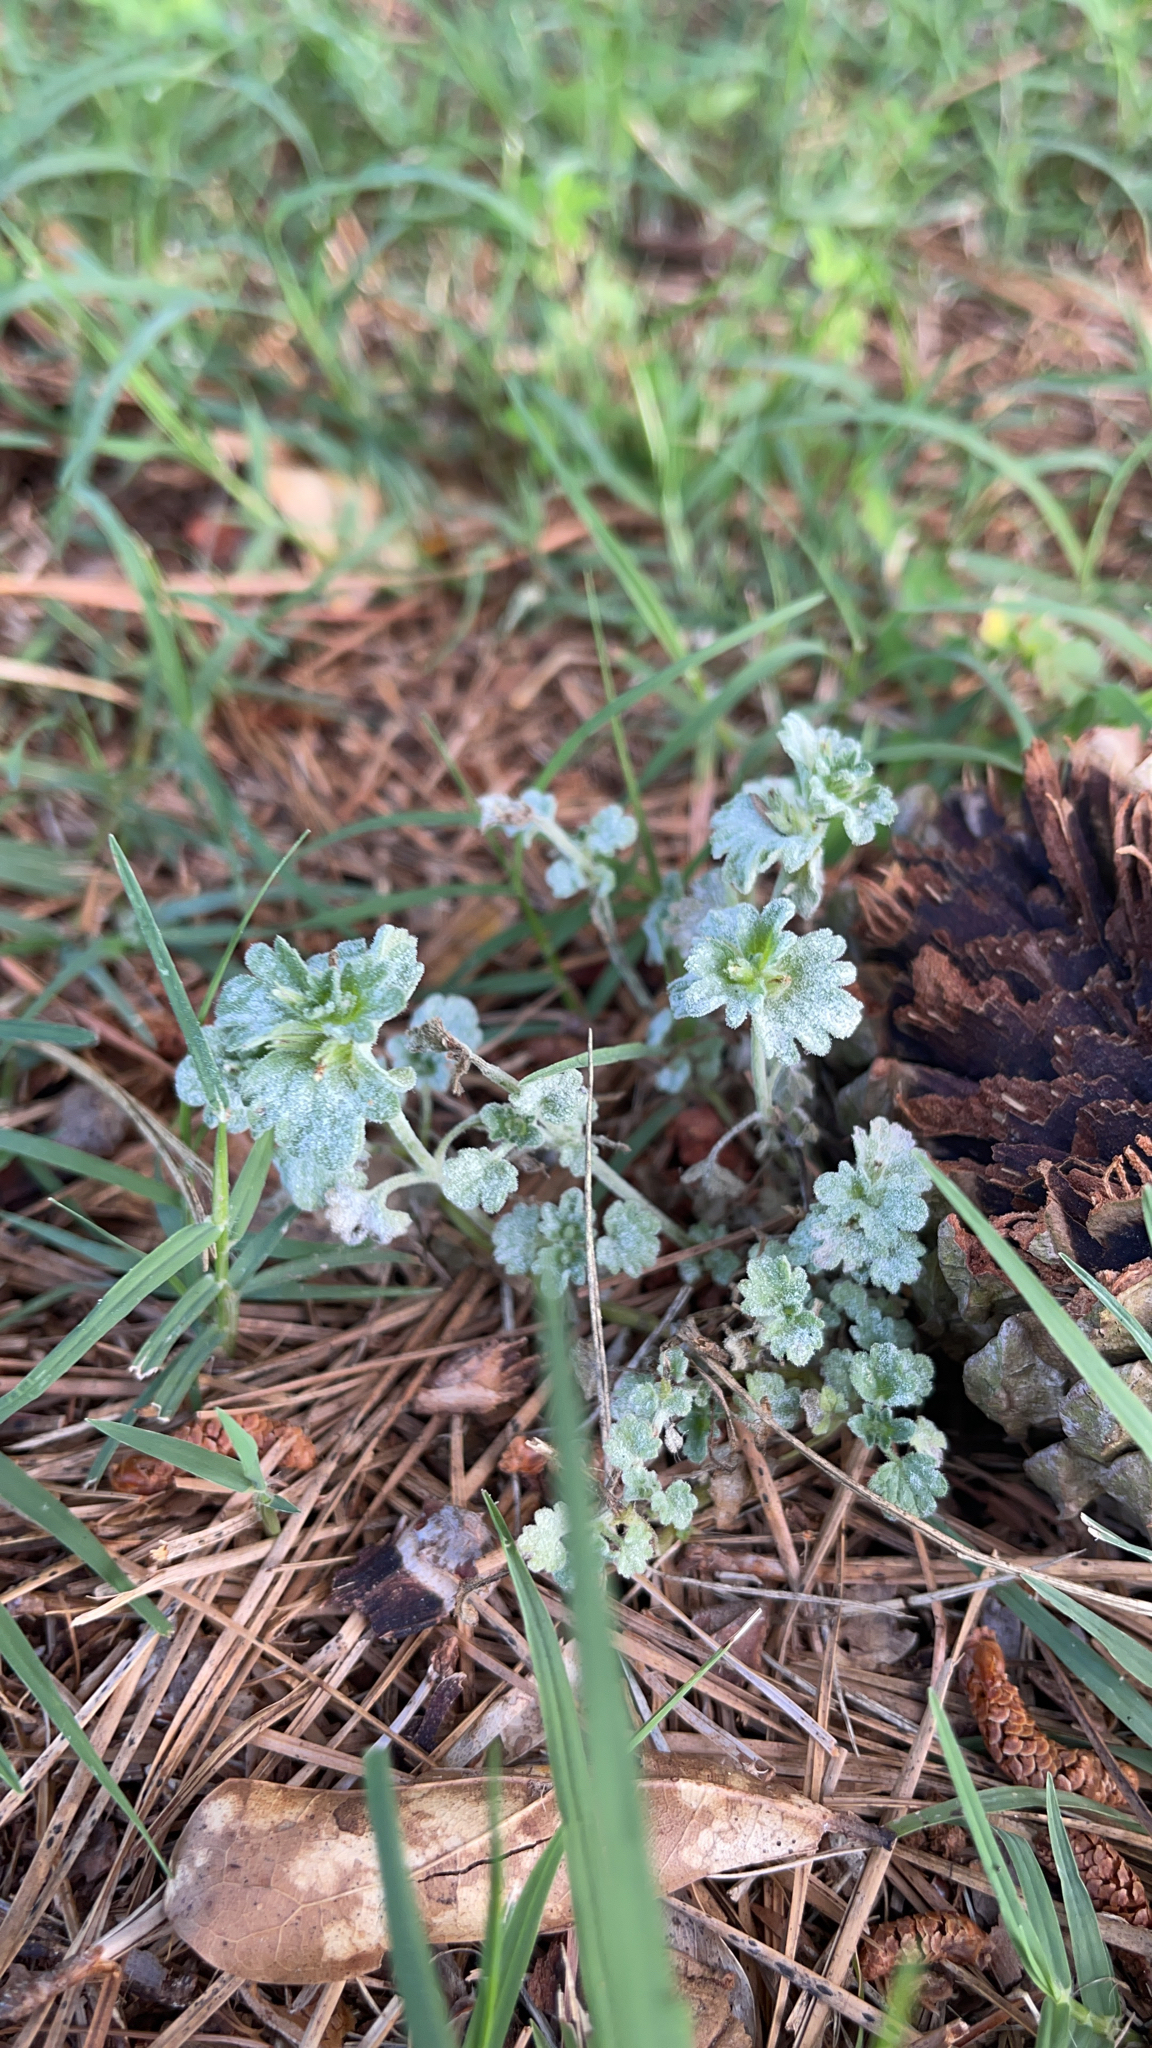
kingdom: Fungi
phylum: Ascomycota
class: Leotiomycetes
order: Helotiales
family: Erysiphaceae
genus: Neoerysiphe
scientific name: Neoerysiphe galeopsidis
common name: Mint mildew
